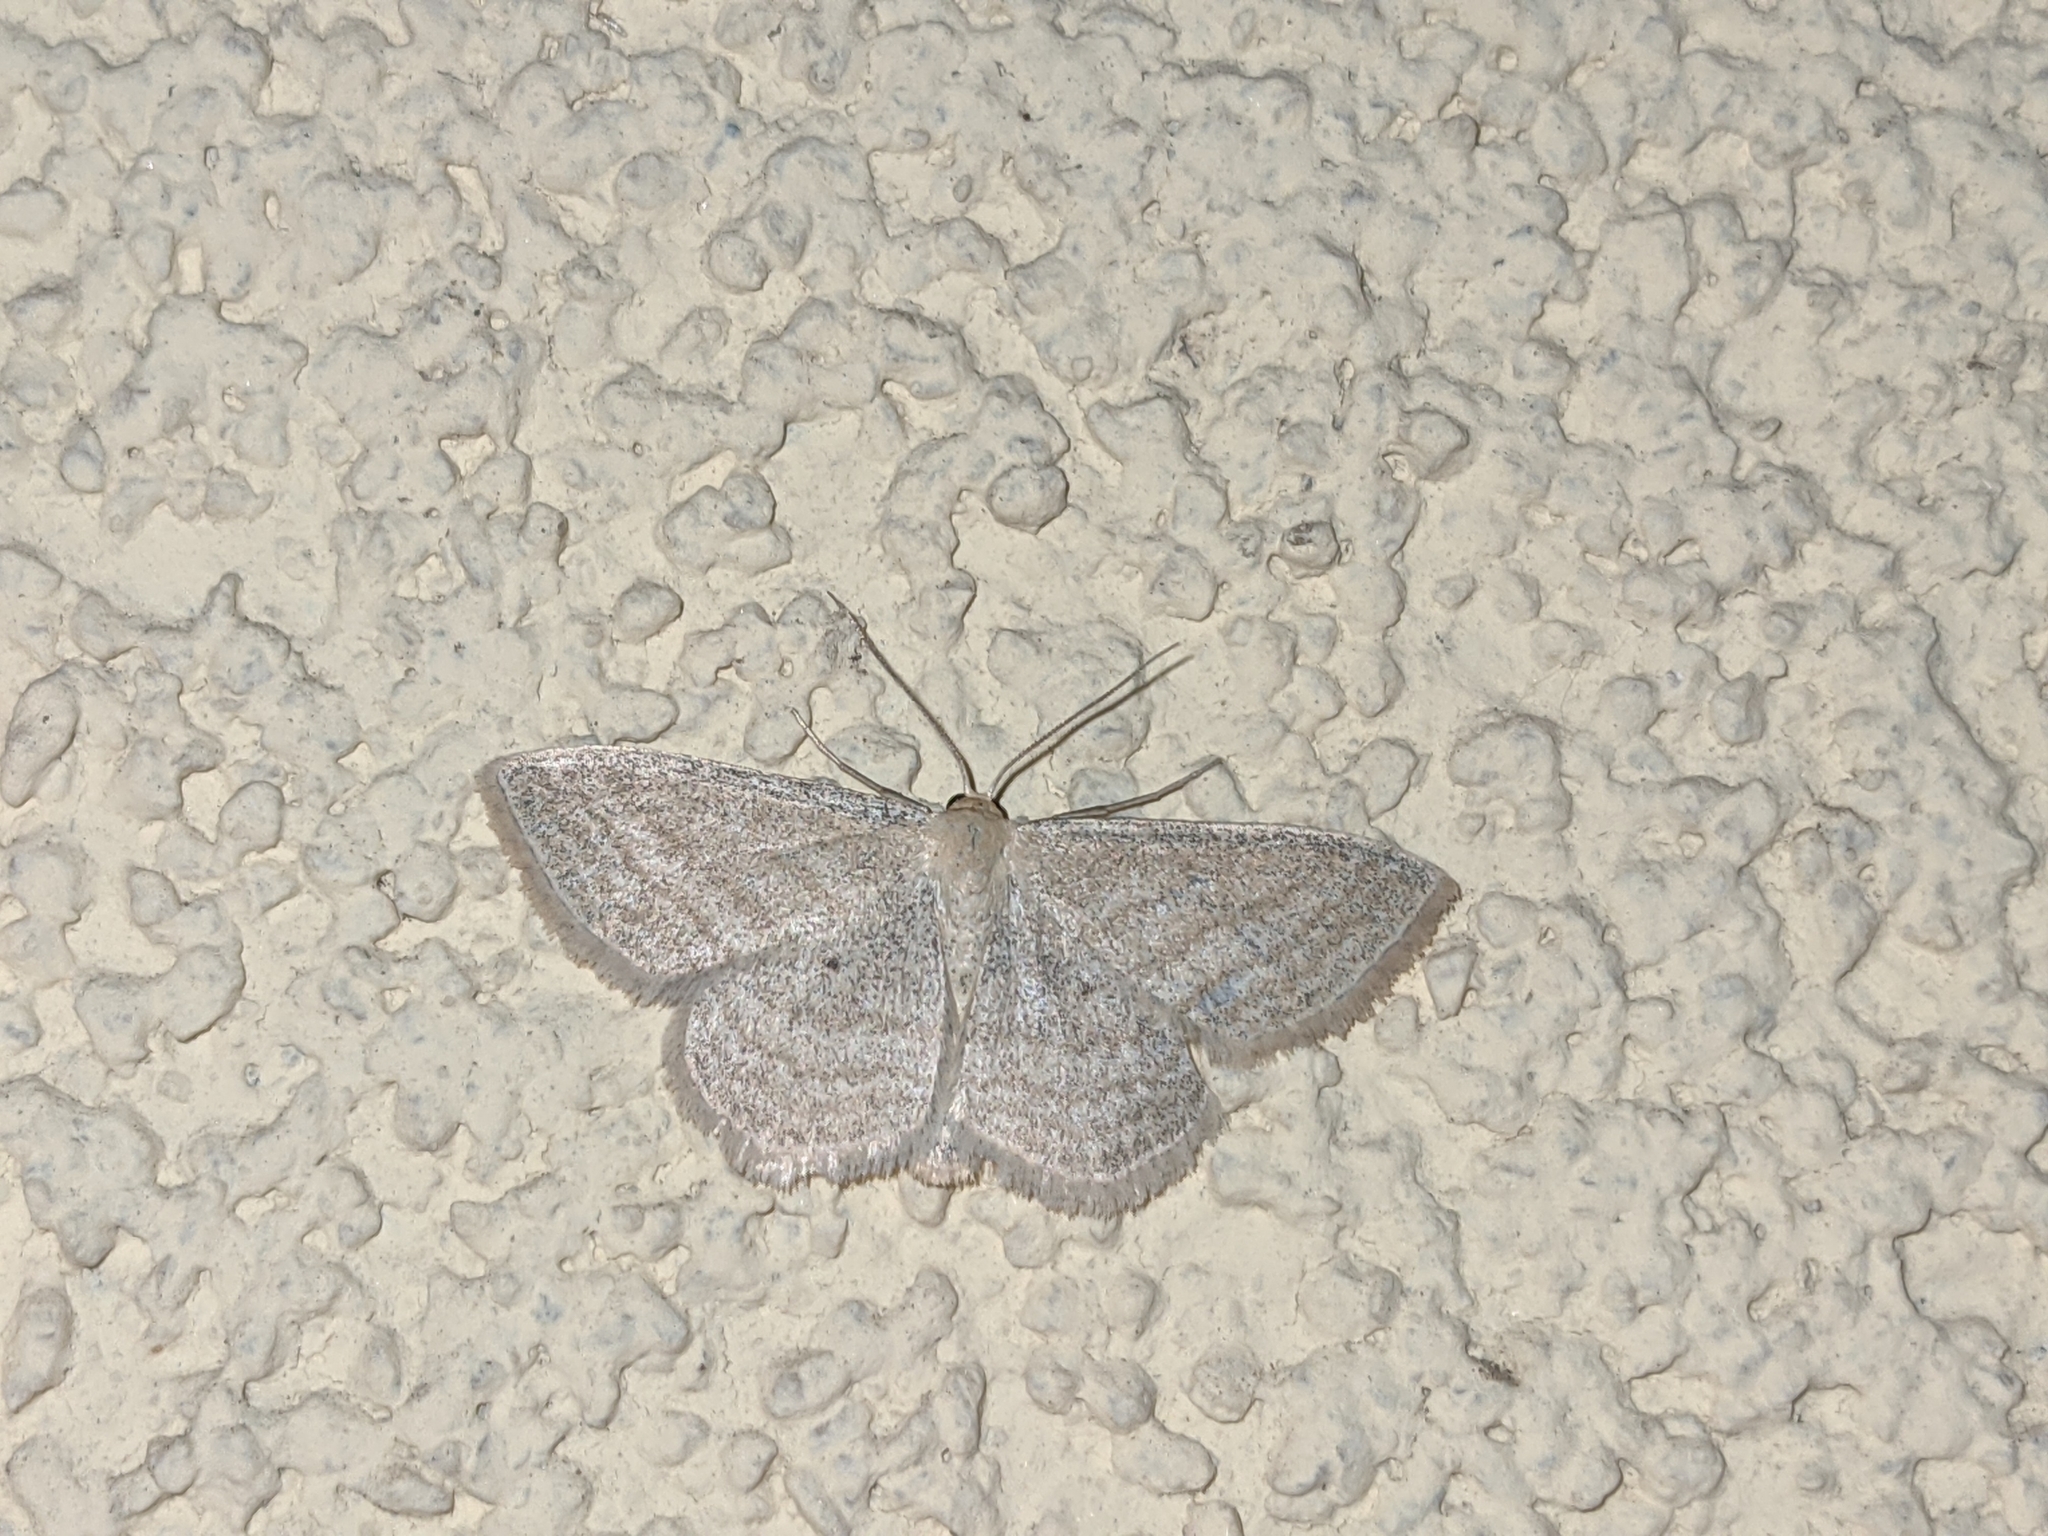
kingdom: Animalia
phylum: Arthropoda
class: Insecta
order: Lepidoptera
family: Geometridae
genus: Scopula
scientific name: Scopula virgulata
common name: Streaked wave
